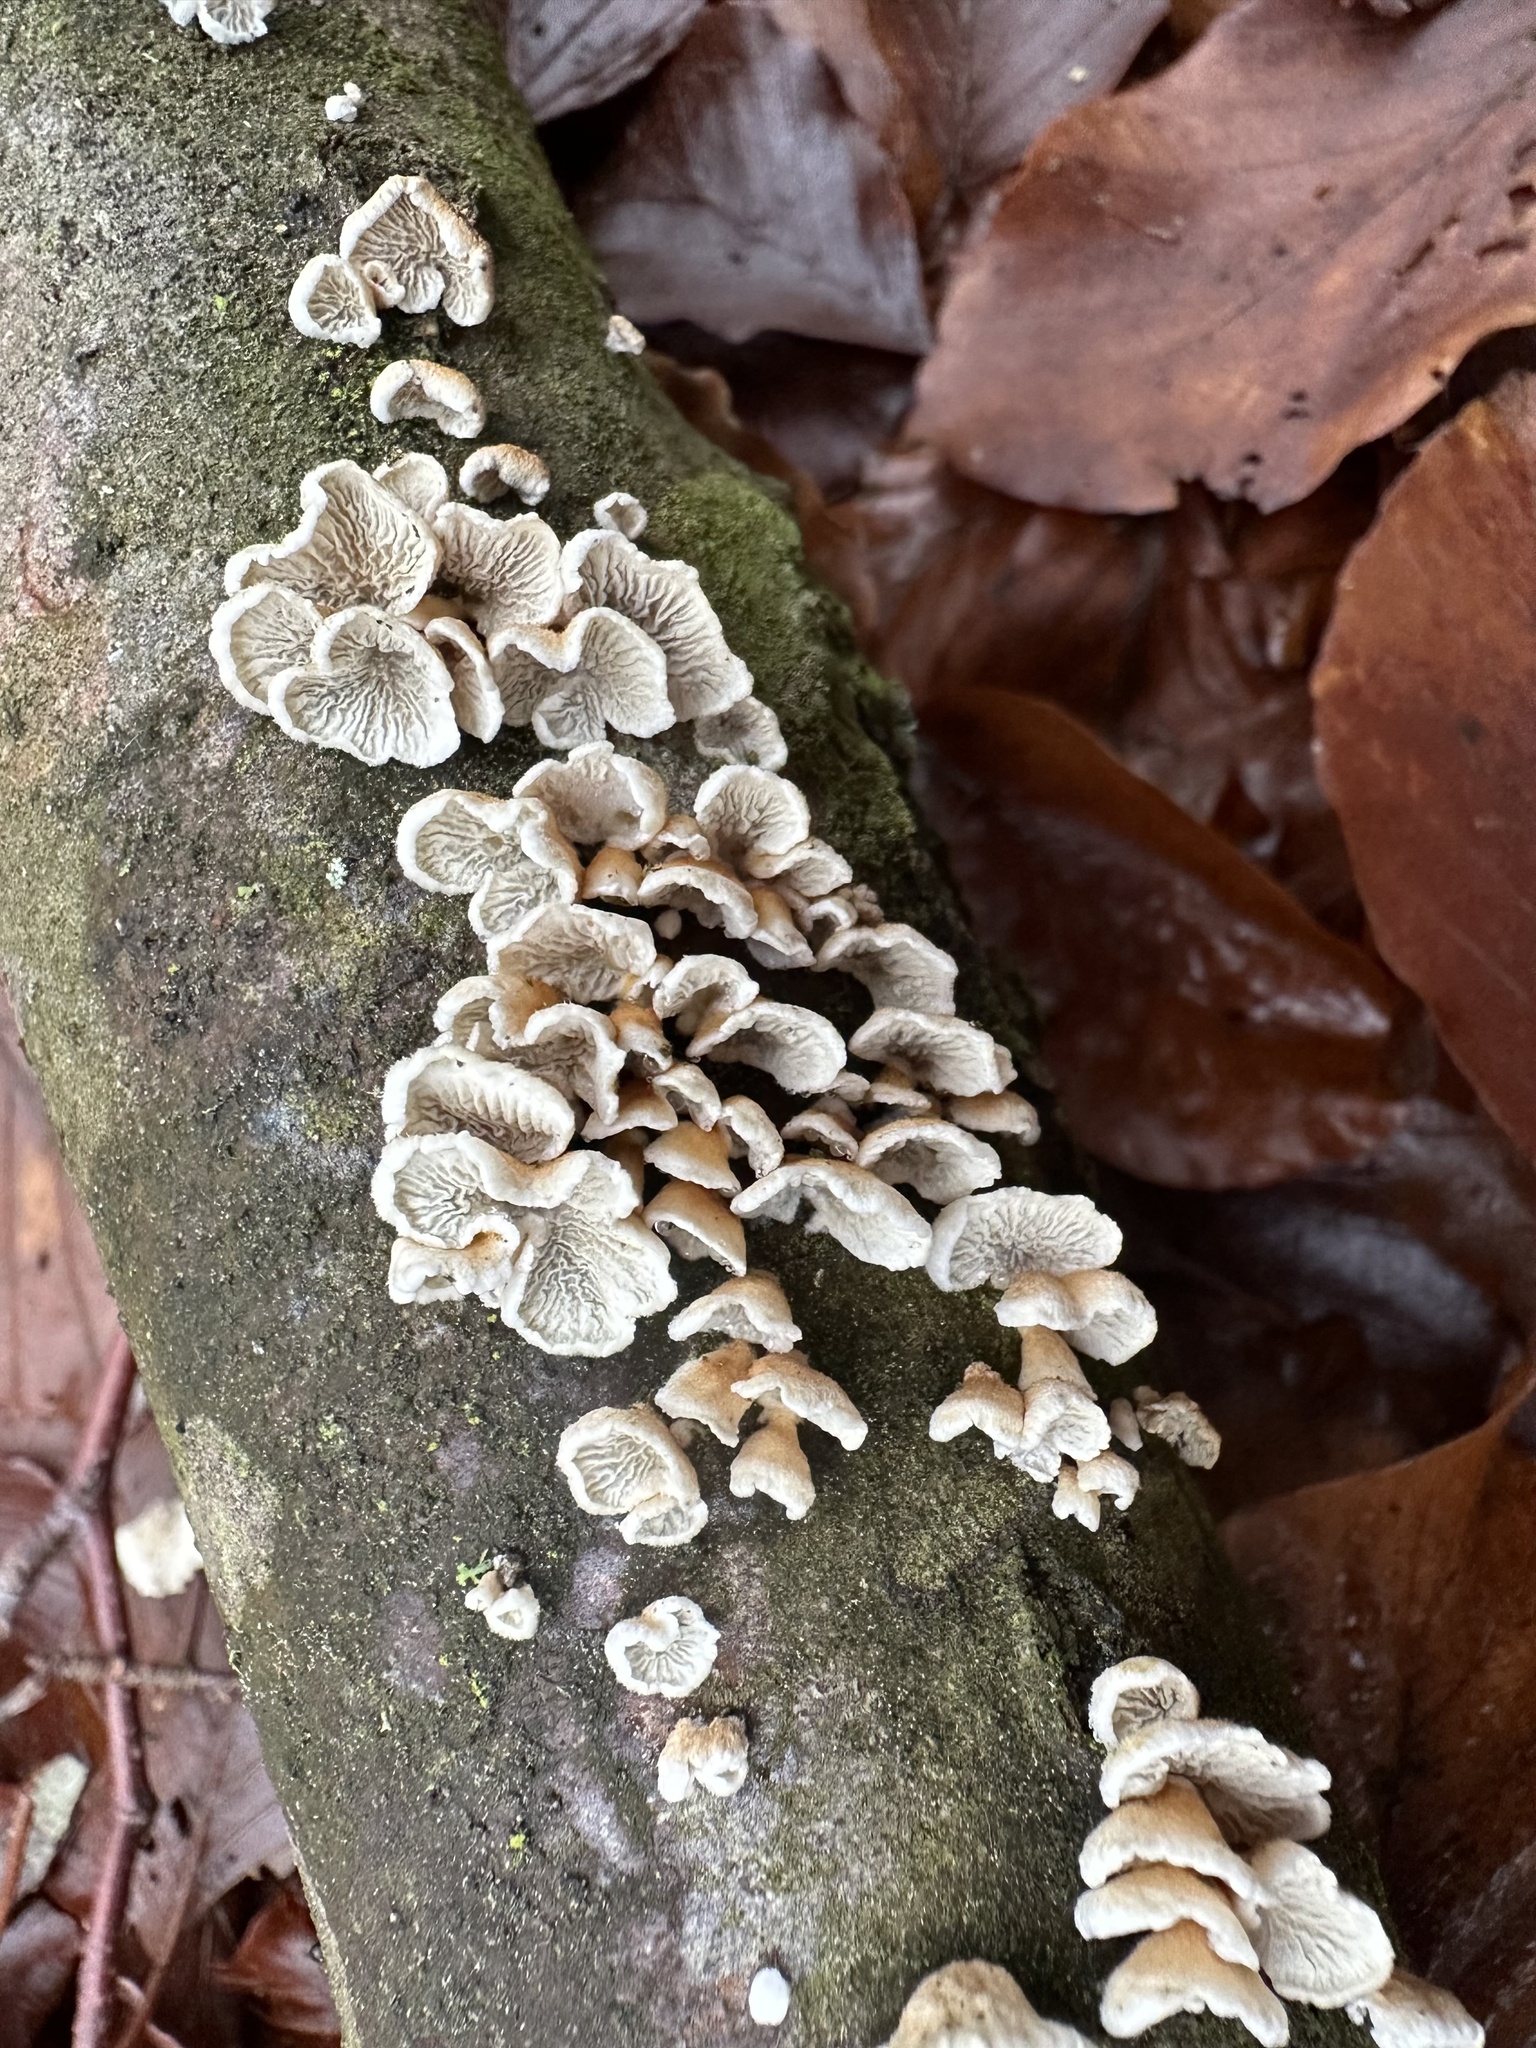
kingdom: Fungi
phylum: Basidiomycota
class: Agaricomycetes
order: Amylocorticiales
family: Amylocorticiaceae
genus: Plicaturopsis
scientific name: Plicaturopsis crispa
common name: Crimped gill
